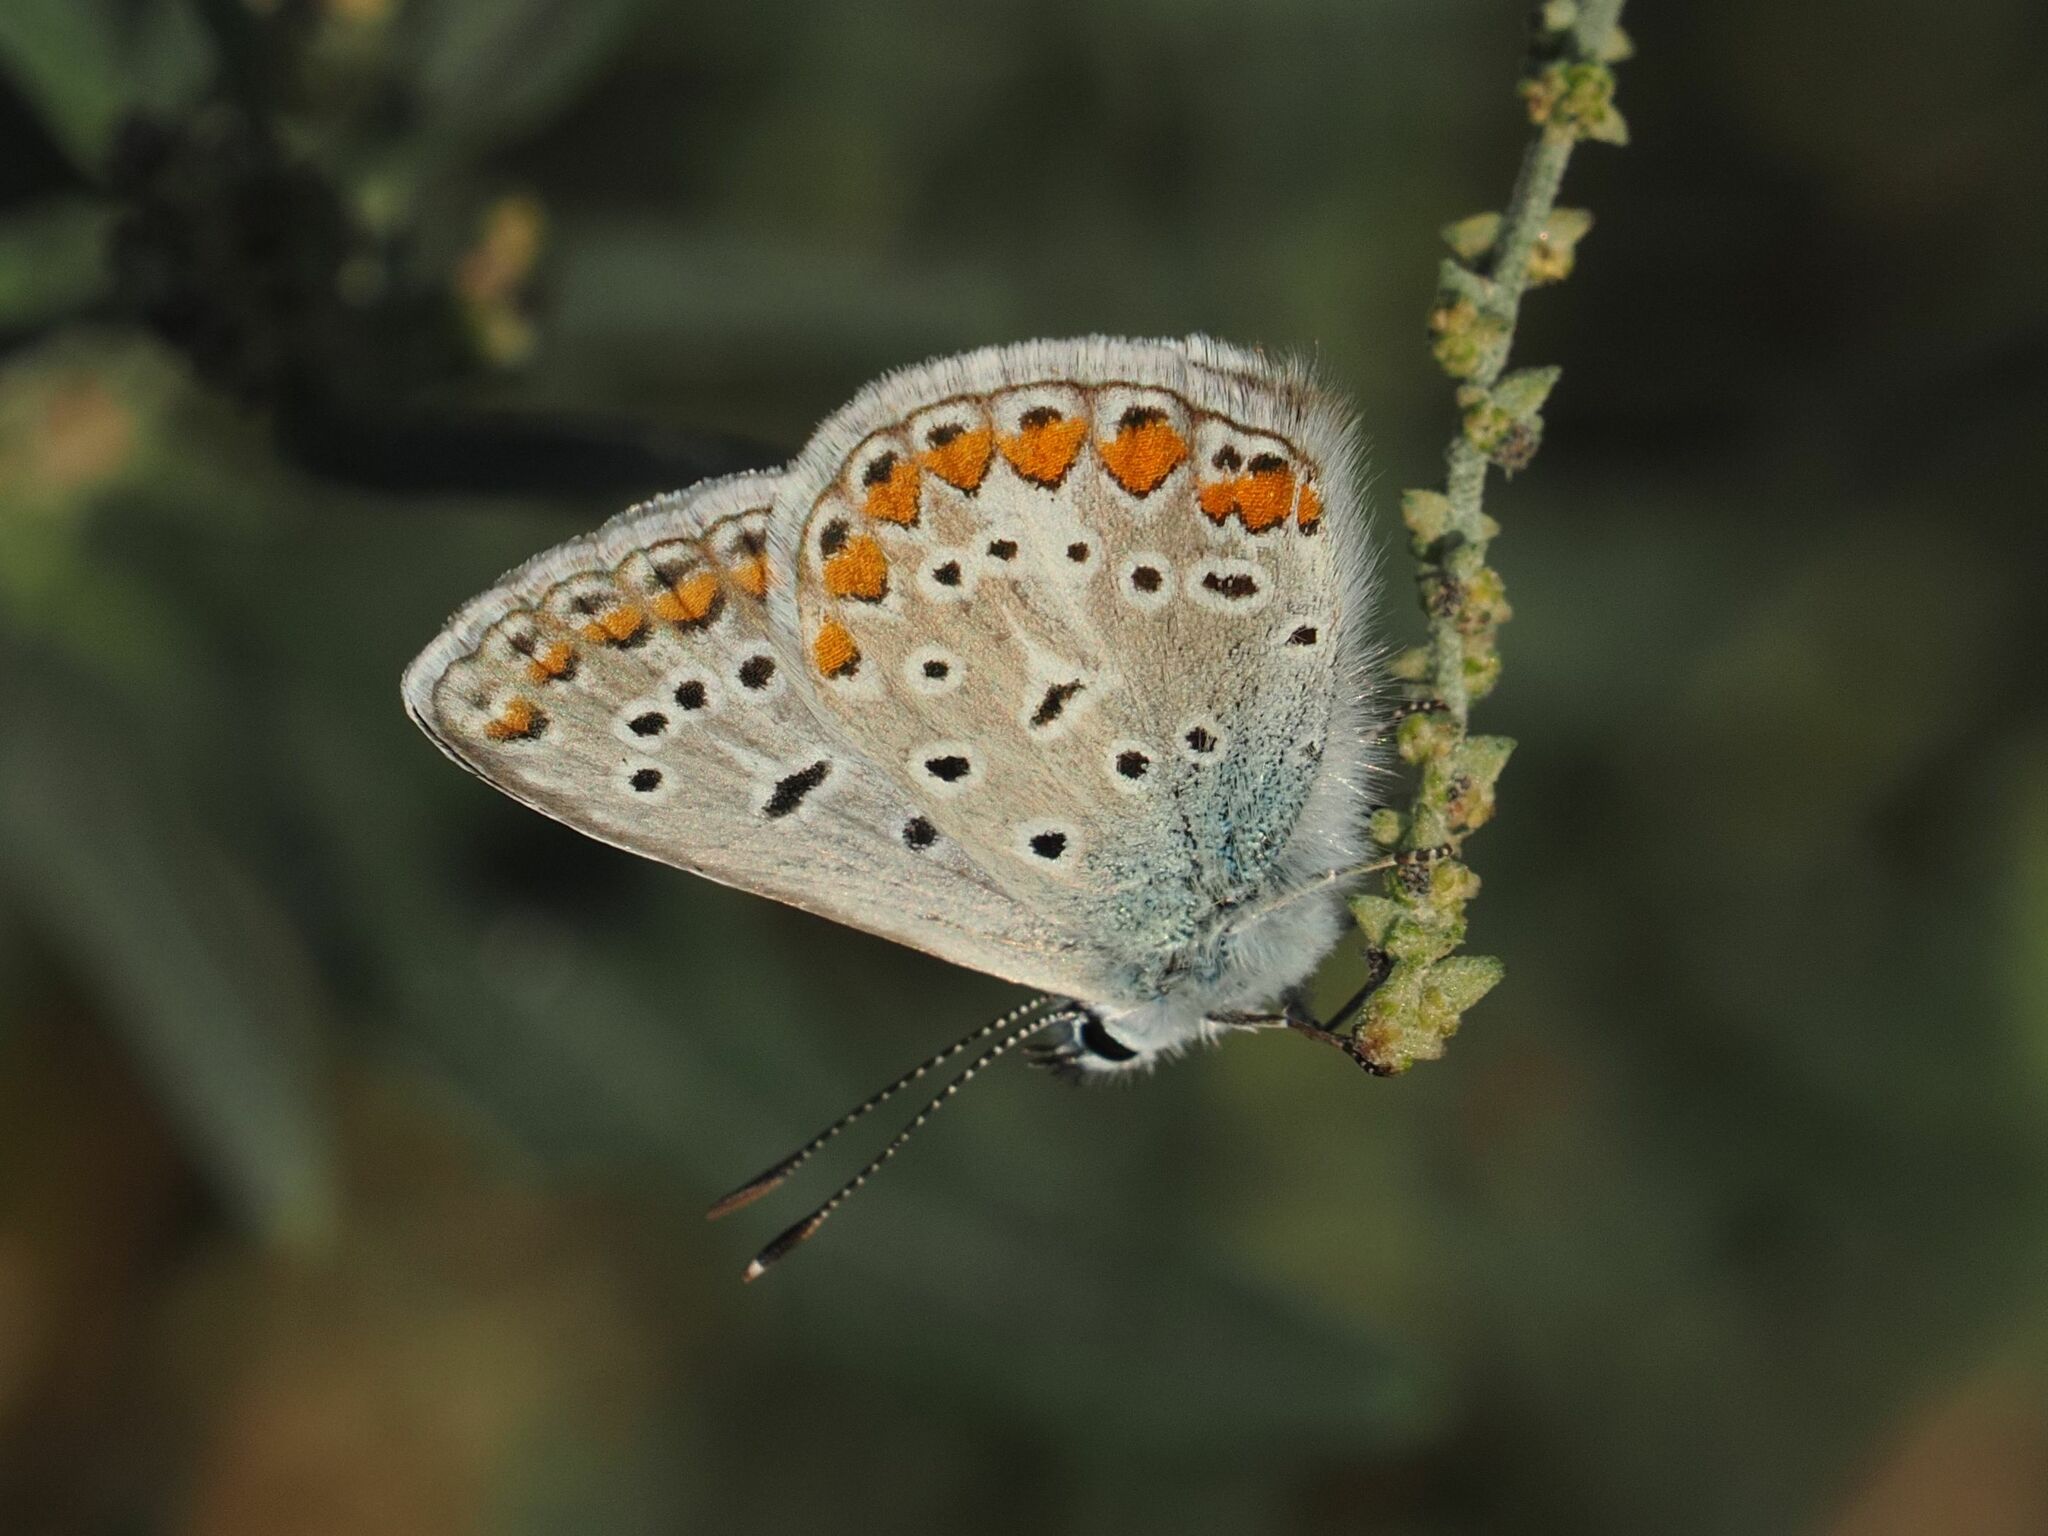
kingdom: Animalia
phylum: Arthropoda
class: Insecta
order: Lepidoptera
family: Lycaenidae
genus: Polyommatus
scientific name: Polyommatus icarus
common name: Common blue
